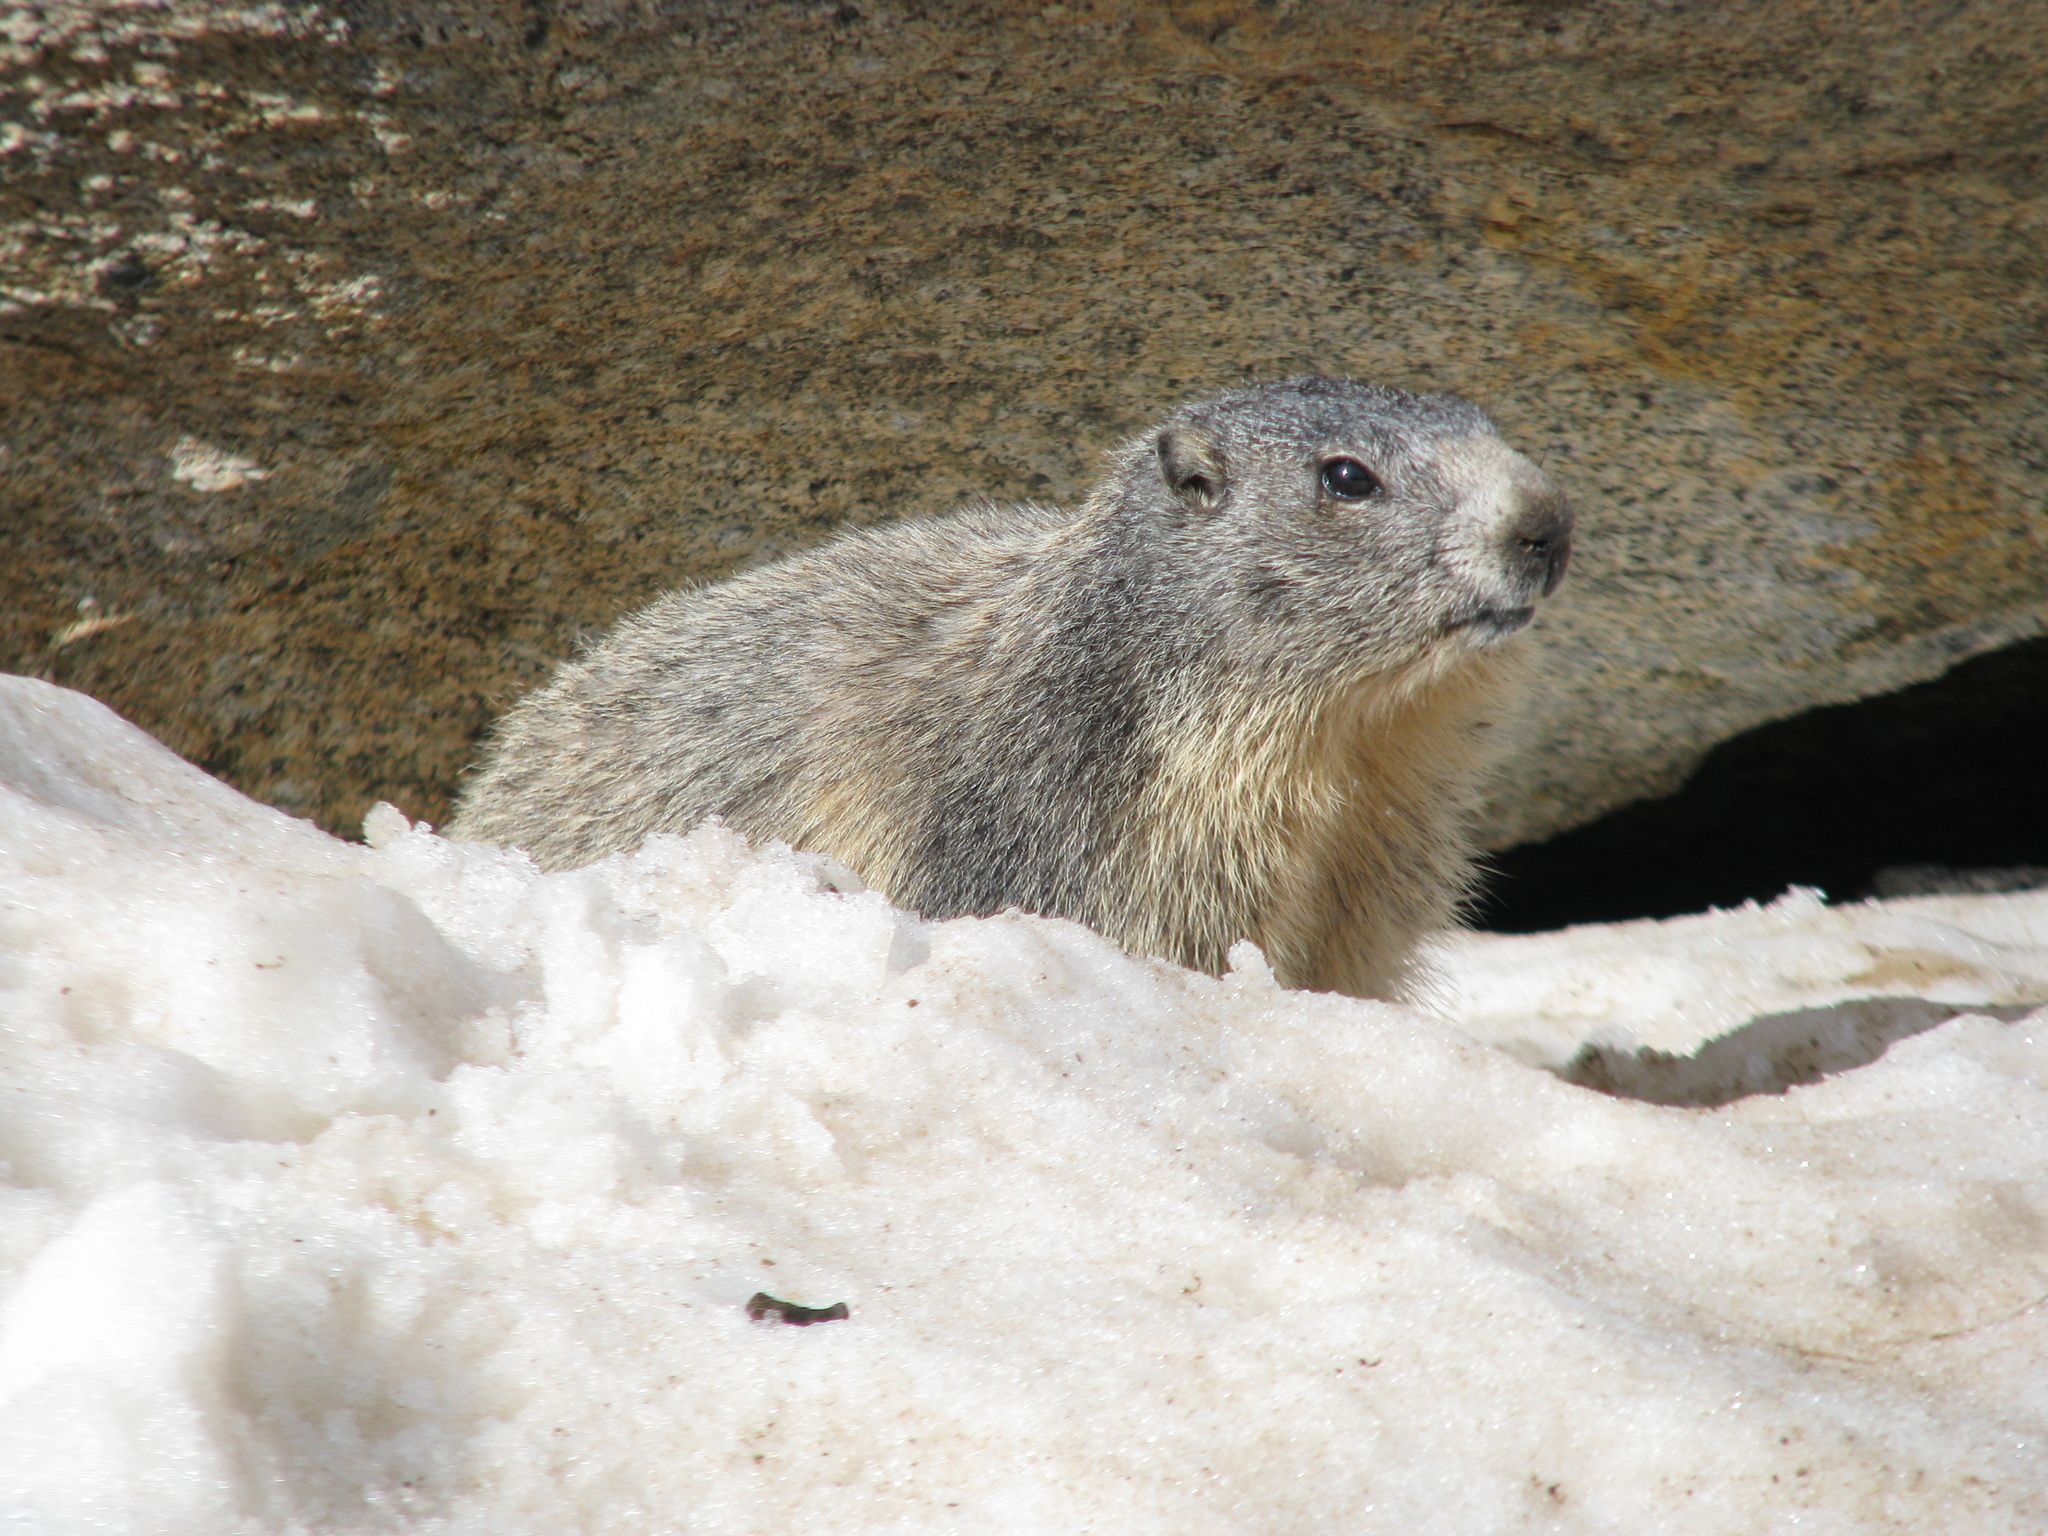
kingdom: Animalia
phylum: Chordata
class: Mammalia
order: Rodentia
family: Sciuridae
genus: Marmota
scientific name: Marmota marmota
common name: Alpine marmot
